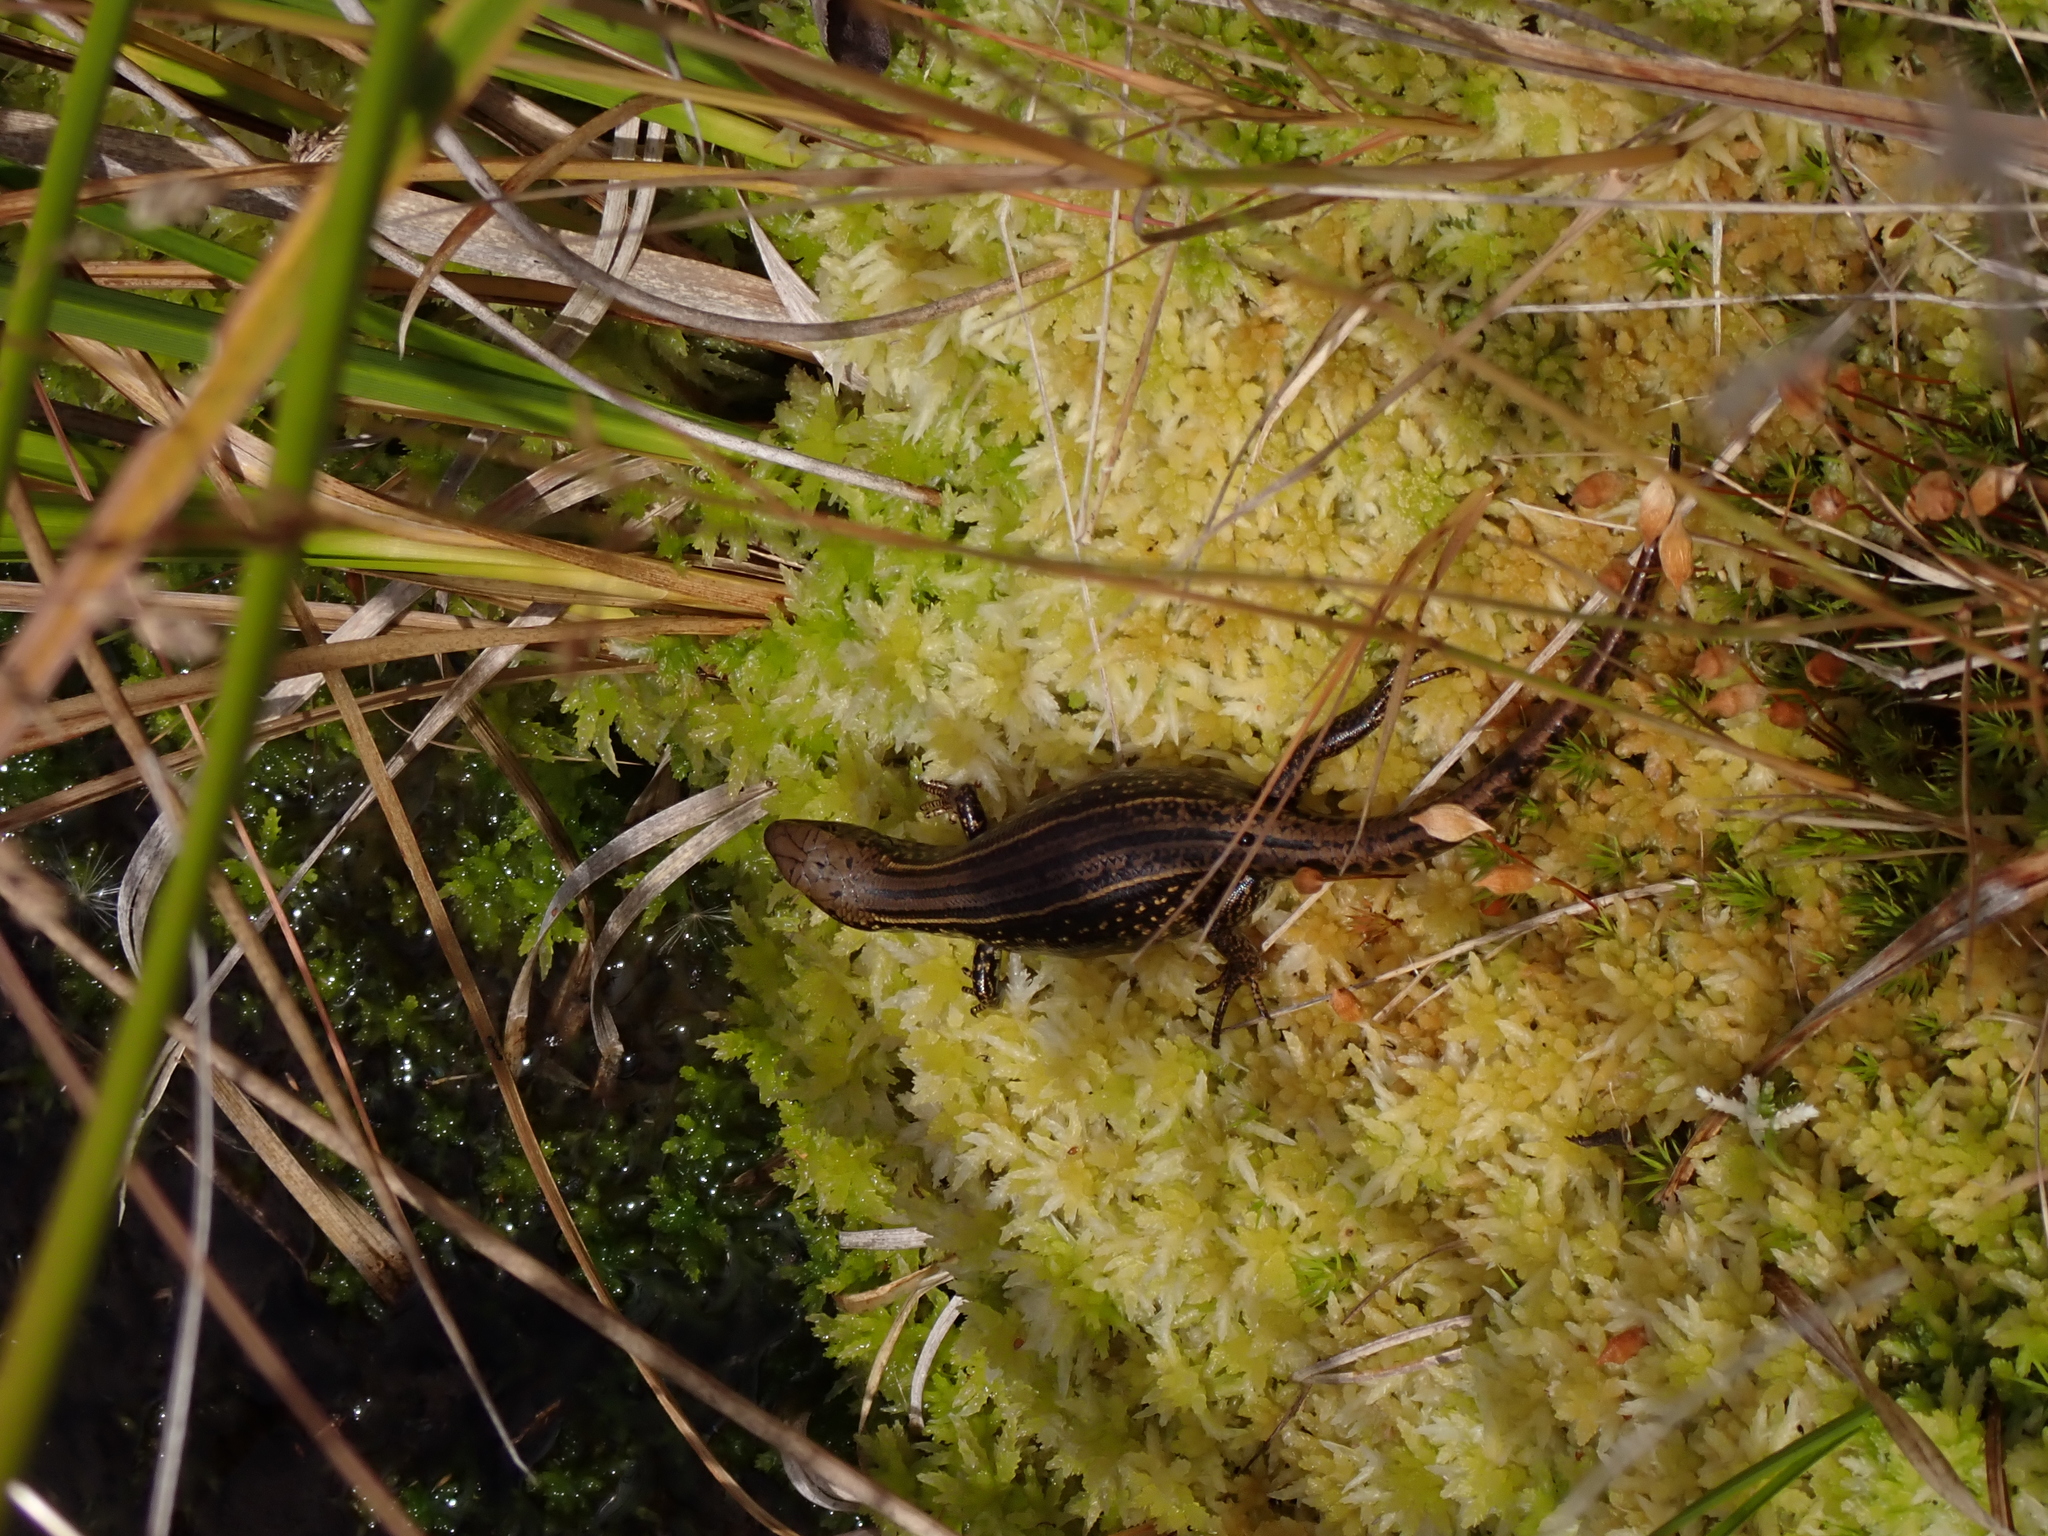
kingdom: Animalia
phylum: Chordata
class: Squamata
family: Scincidae
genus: Eulamprus
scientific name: Eulamprus kosciuskoi
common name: Alpine meadow-skink
